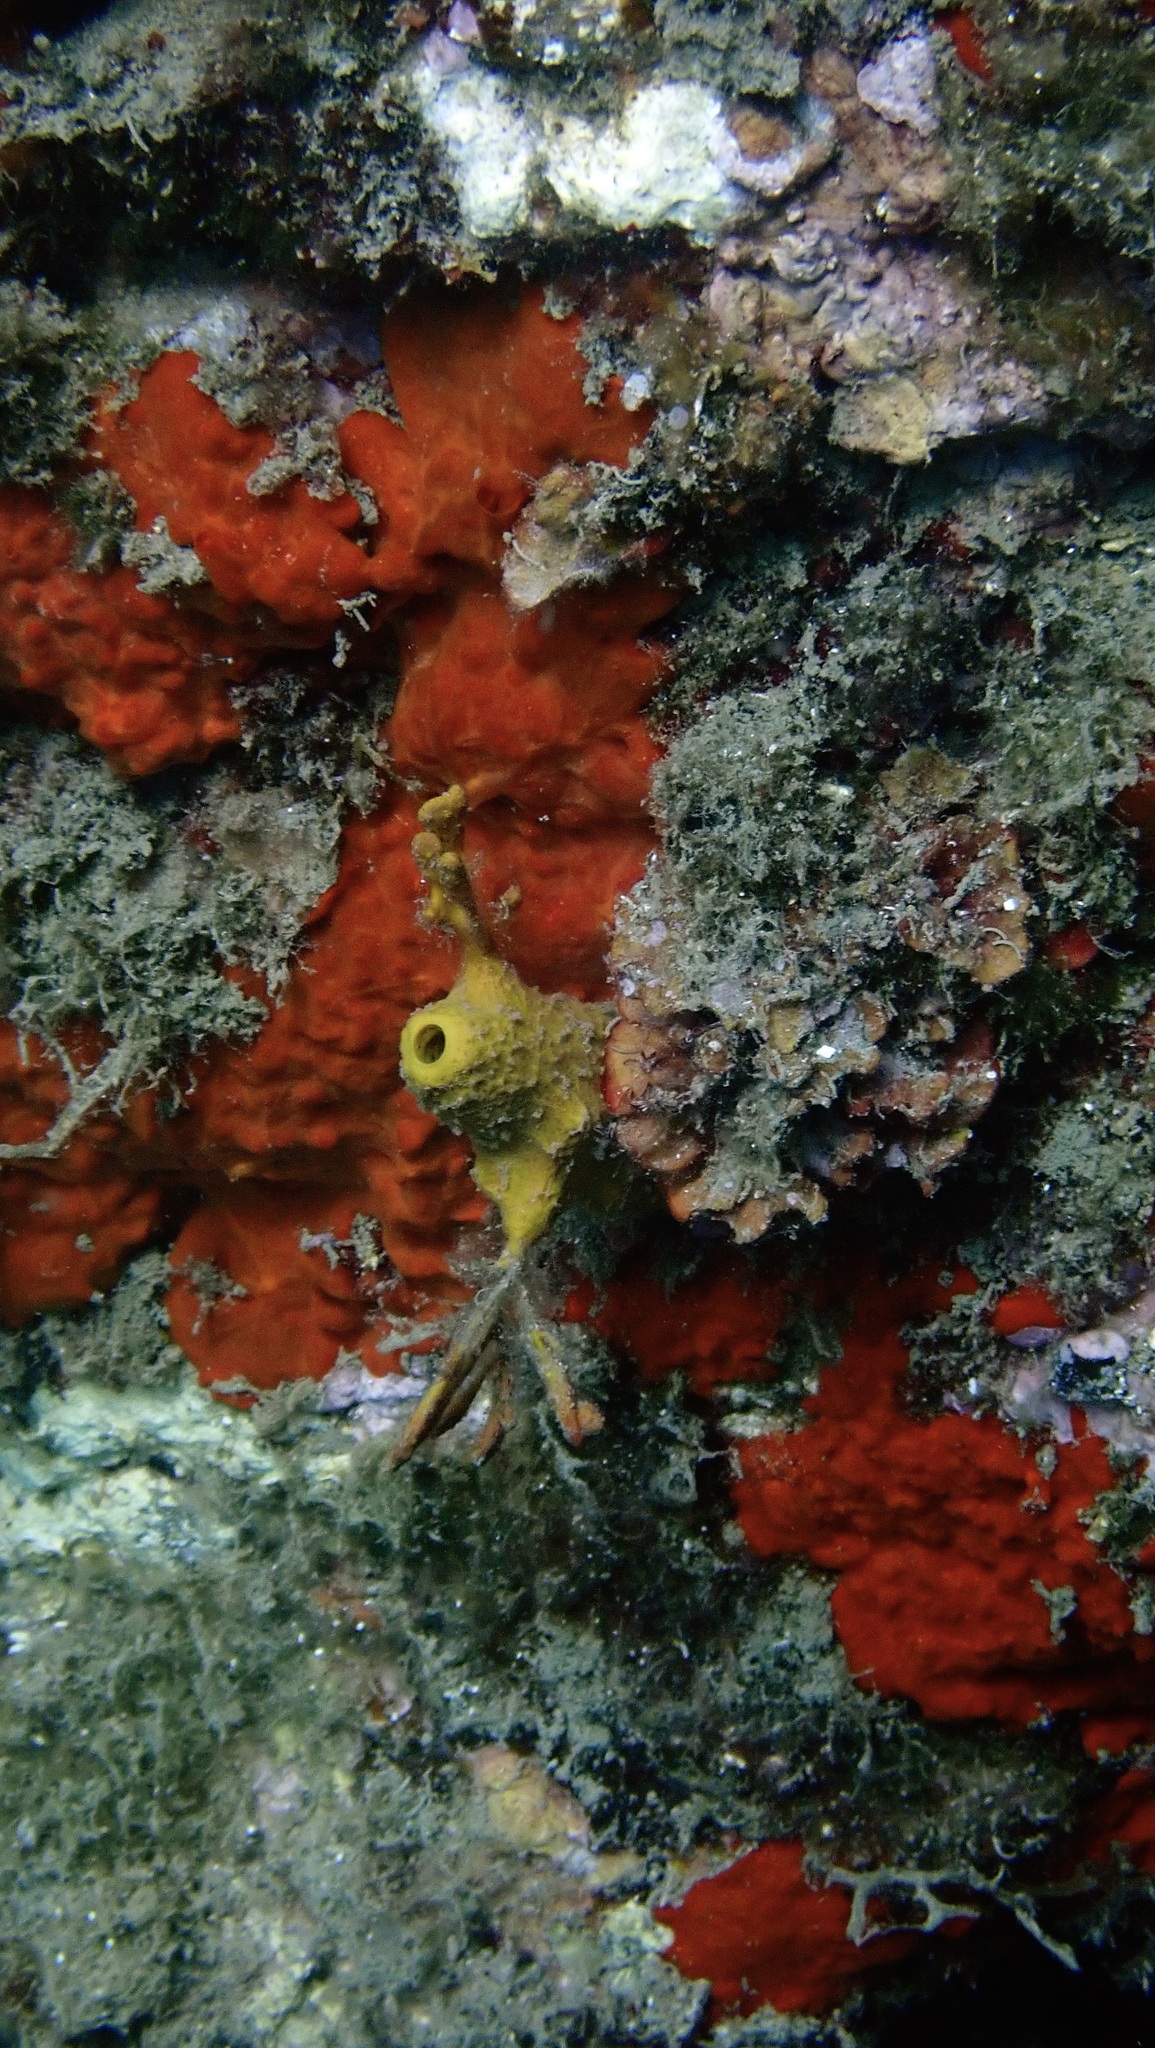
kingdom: Animalia
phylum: Porifera
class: Demospongiae
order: Poecilosclerida
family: Crambeidae
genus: Crambe
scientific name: Crambe crambe
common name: Orange-red encrusting sponge
